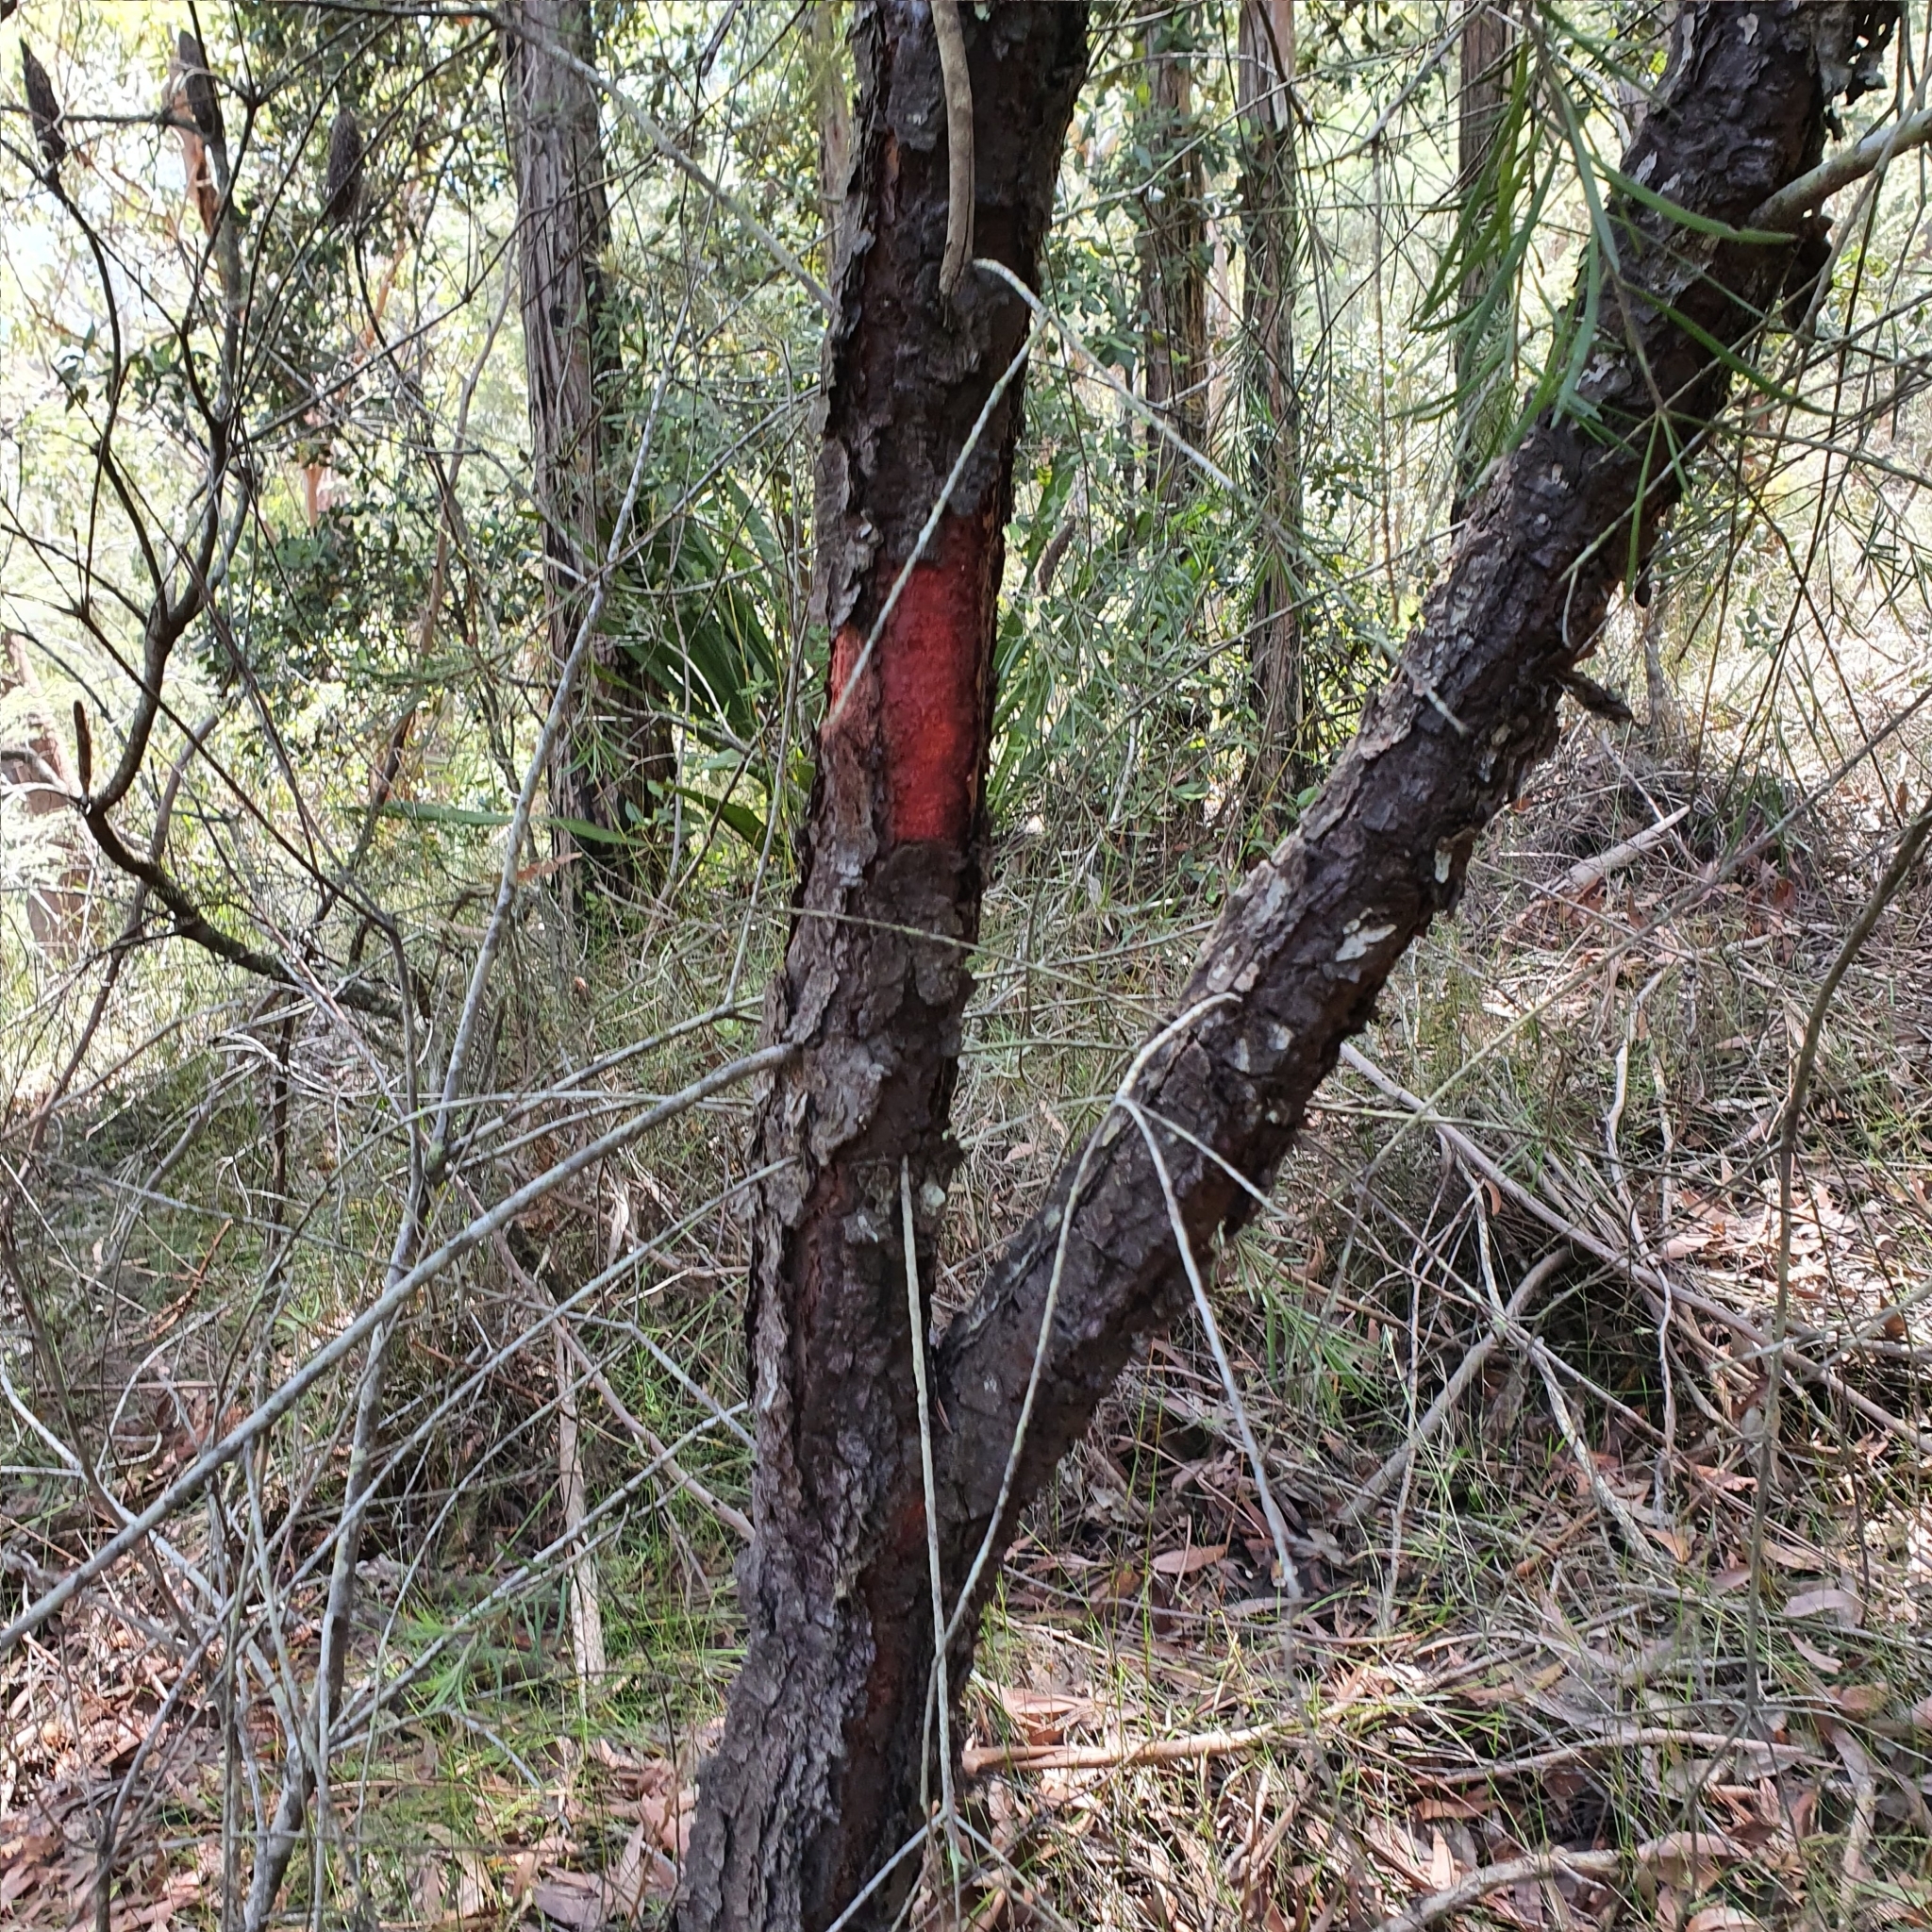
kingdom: Plantae
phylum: Tracheophyta
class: Magnoliopsida
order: Proteales
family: Proteaceae
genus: Persoonia
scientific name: Persoonia linearis
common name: Narrow-leaf geebung
